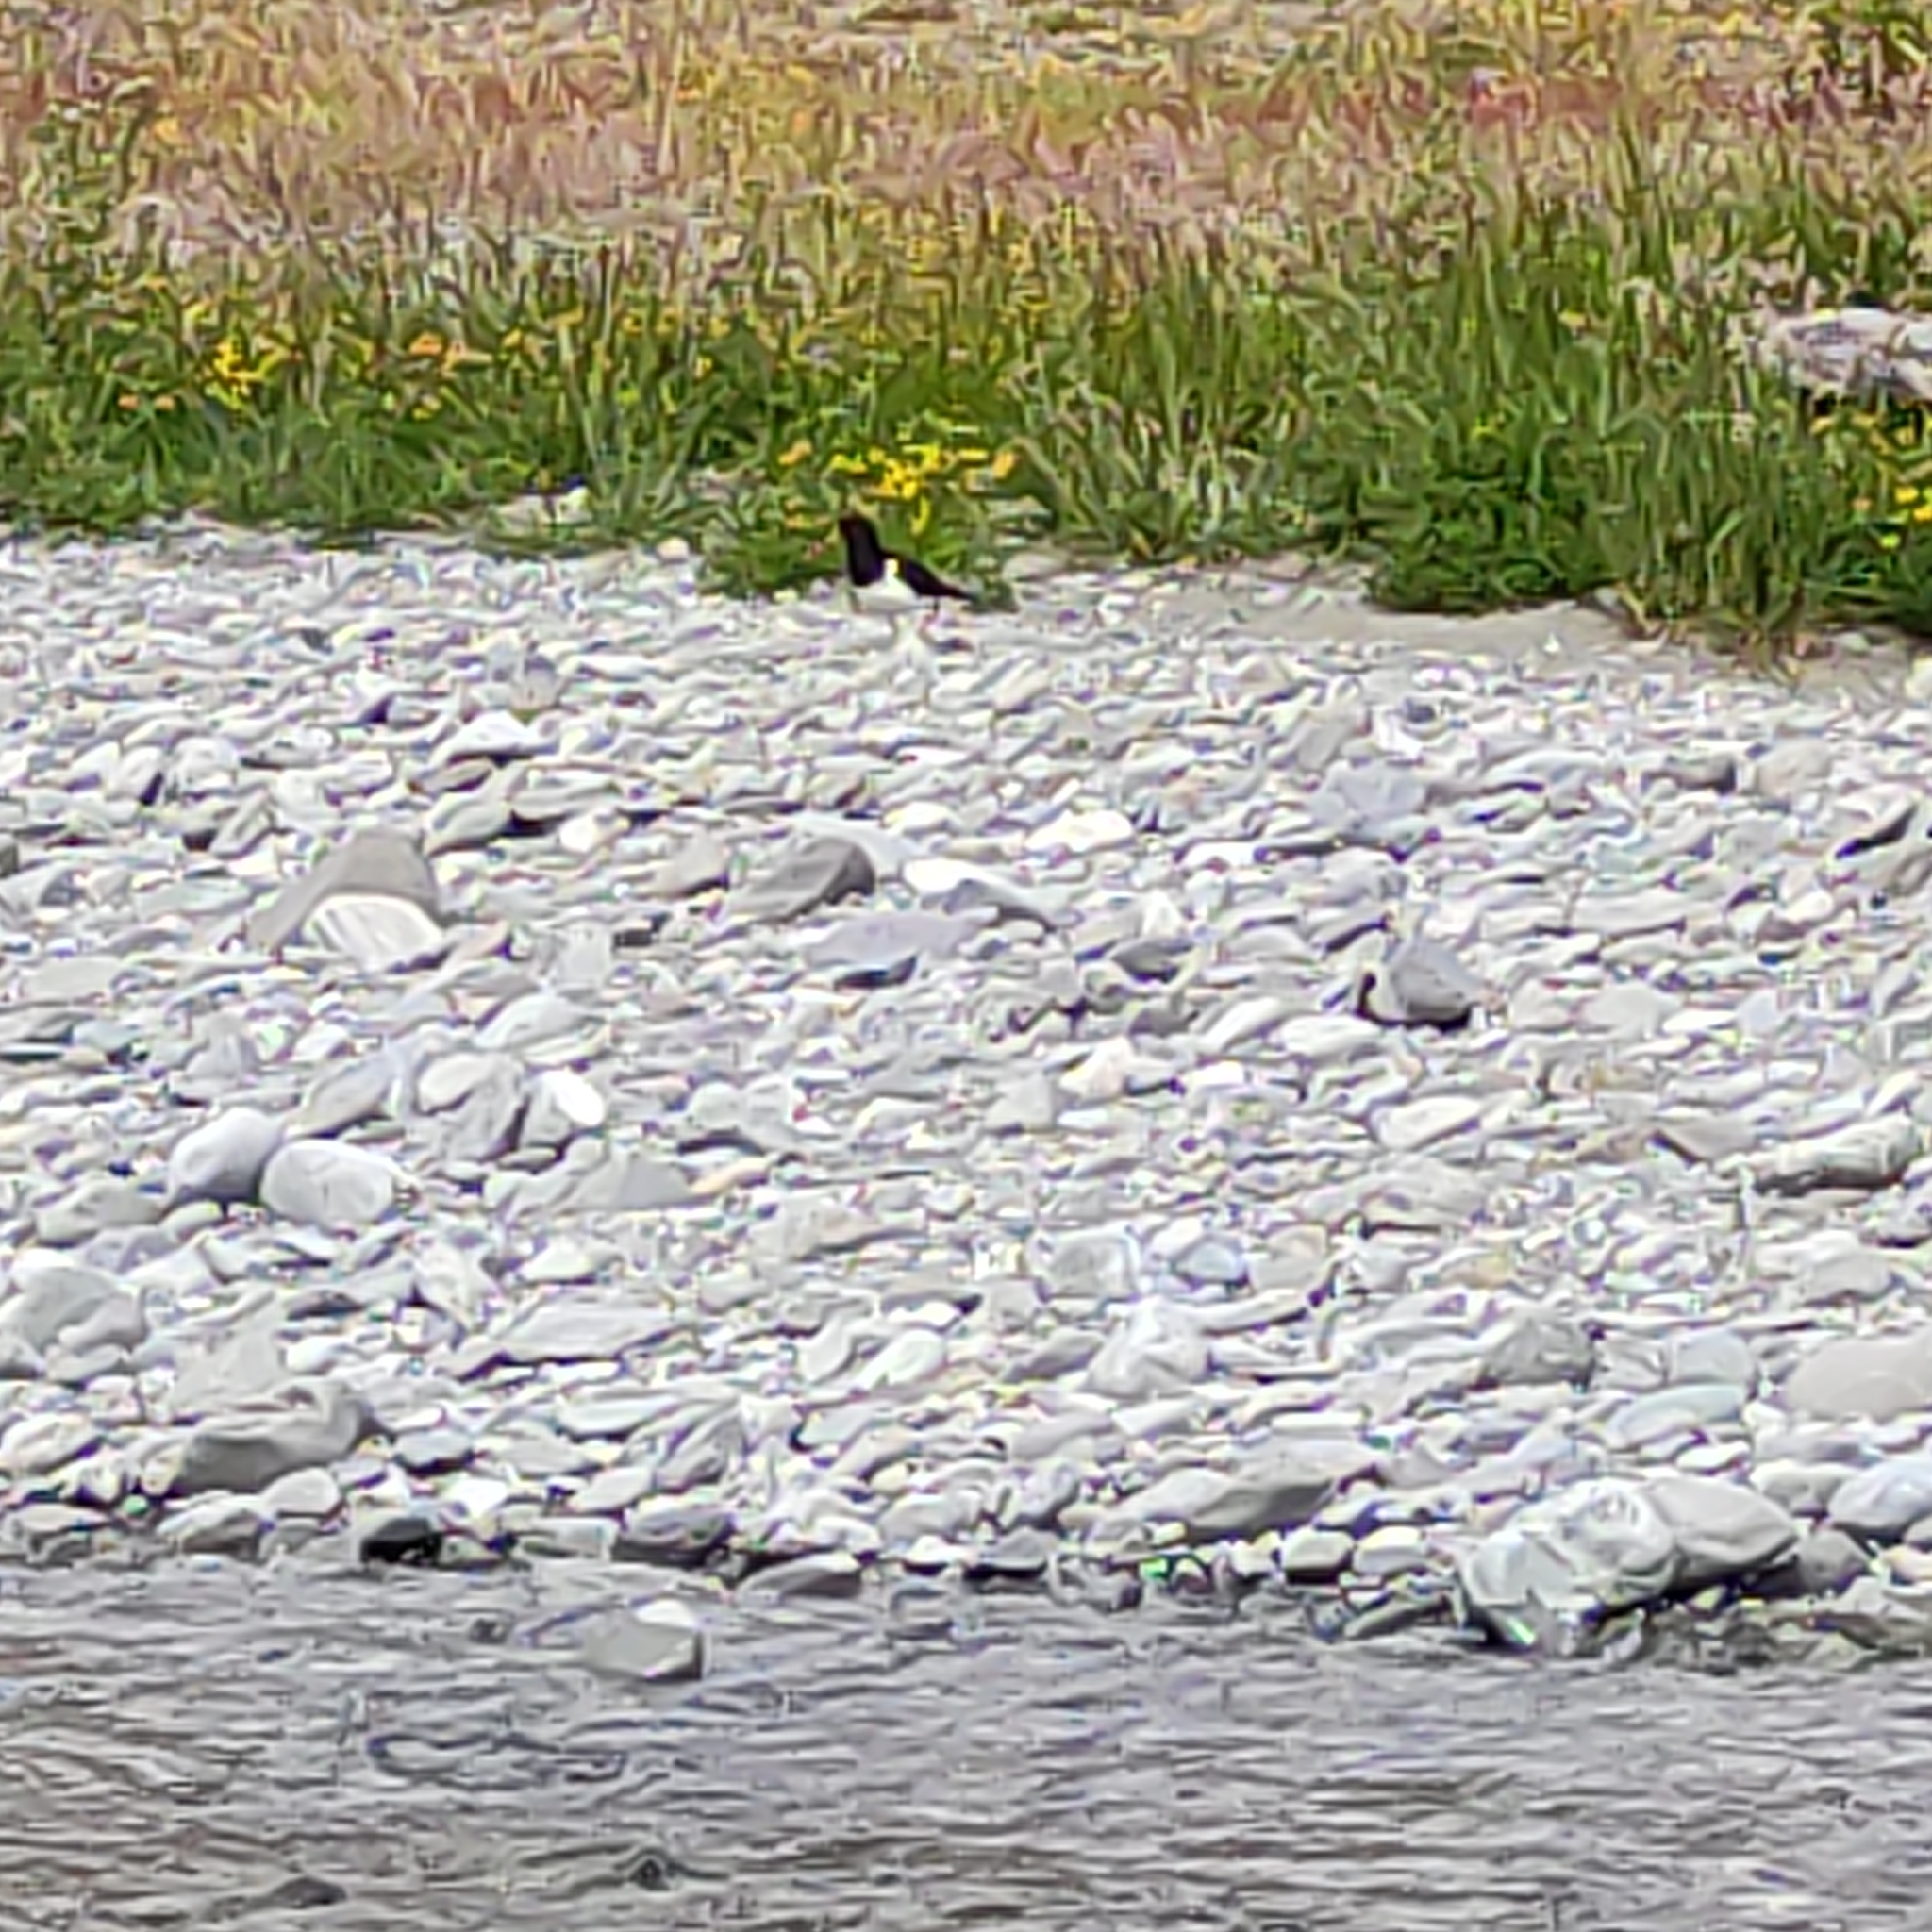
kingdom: Animalia
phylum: Chordata
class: Aves
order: Charadriiformes
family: Haematopodidae
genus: Haematopus
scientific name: Haematopus finschi
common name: South island oystercatcher
